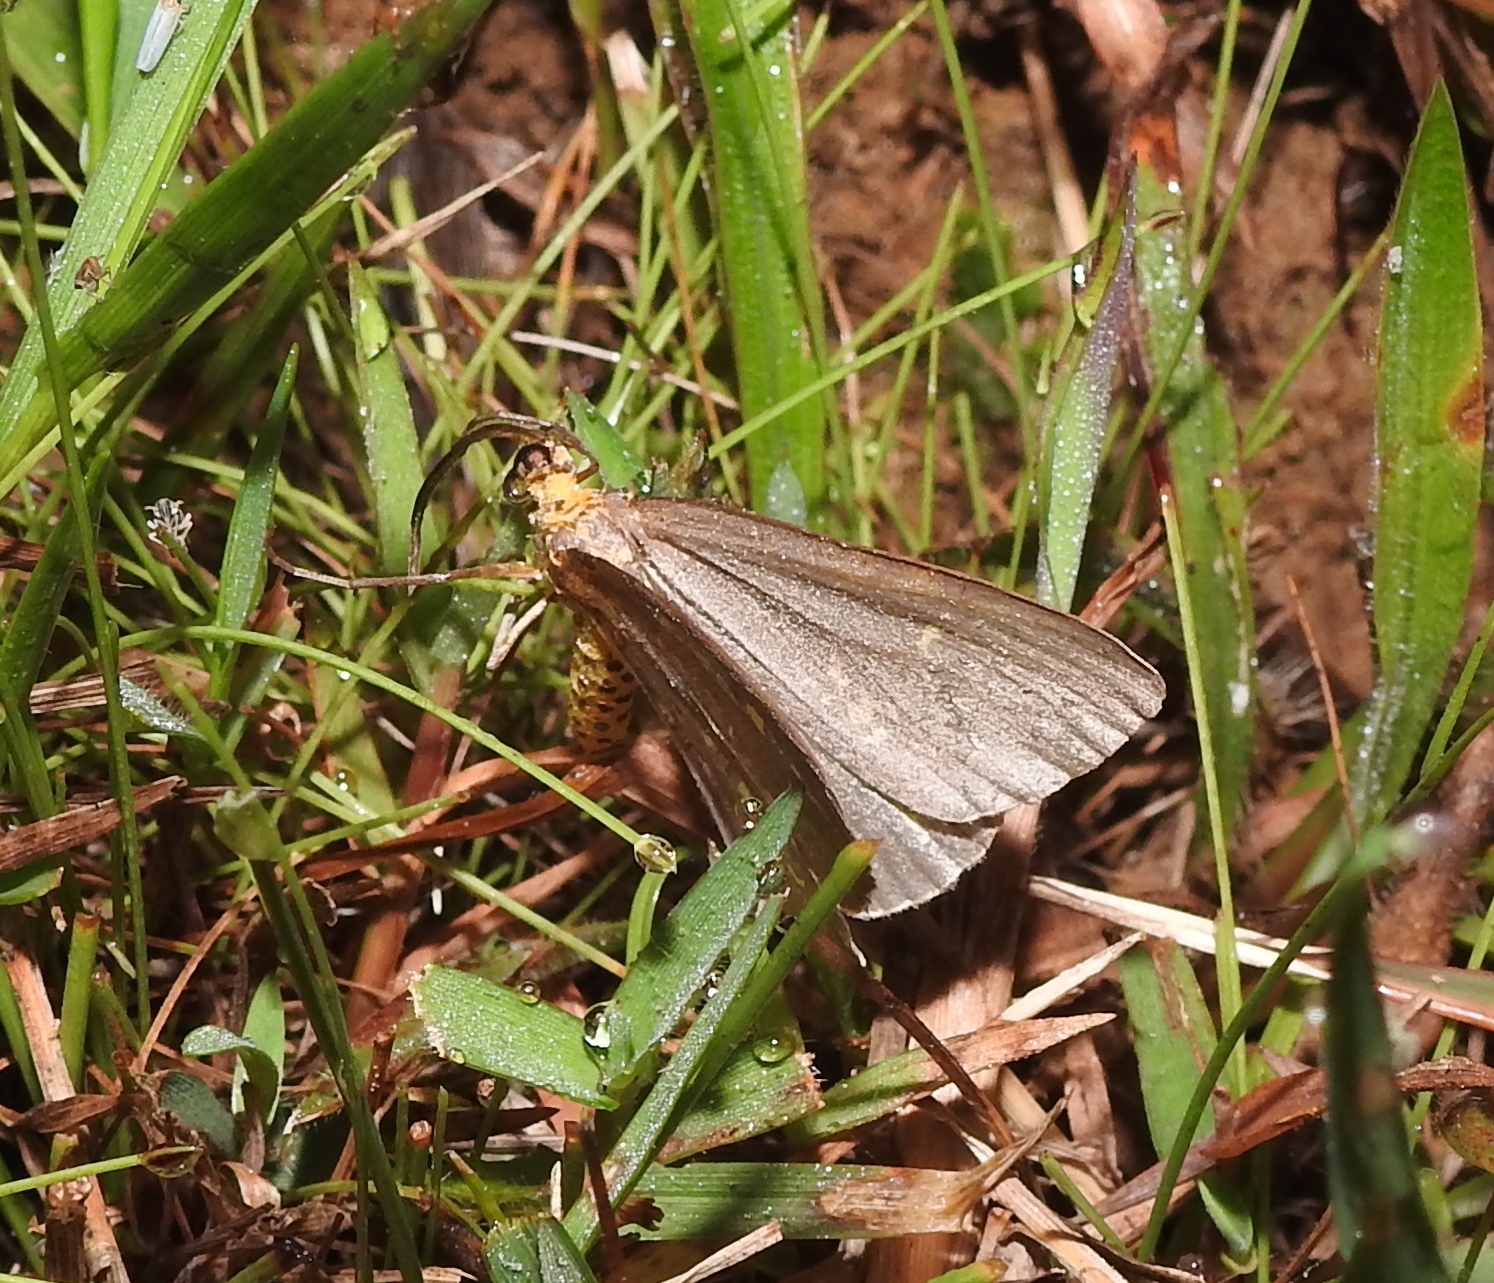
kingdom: Animalia
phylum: Arthropoda
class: Insecta
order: Lepidoptera
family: Geometridae
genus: Abraxas
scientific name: Abraxas poliaria
